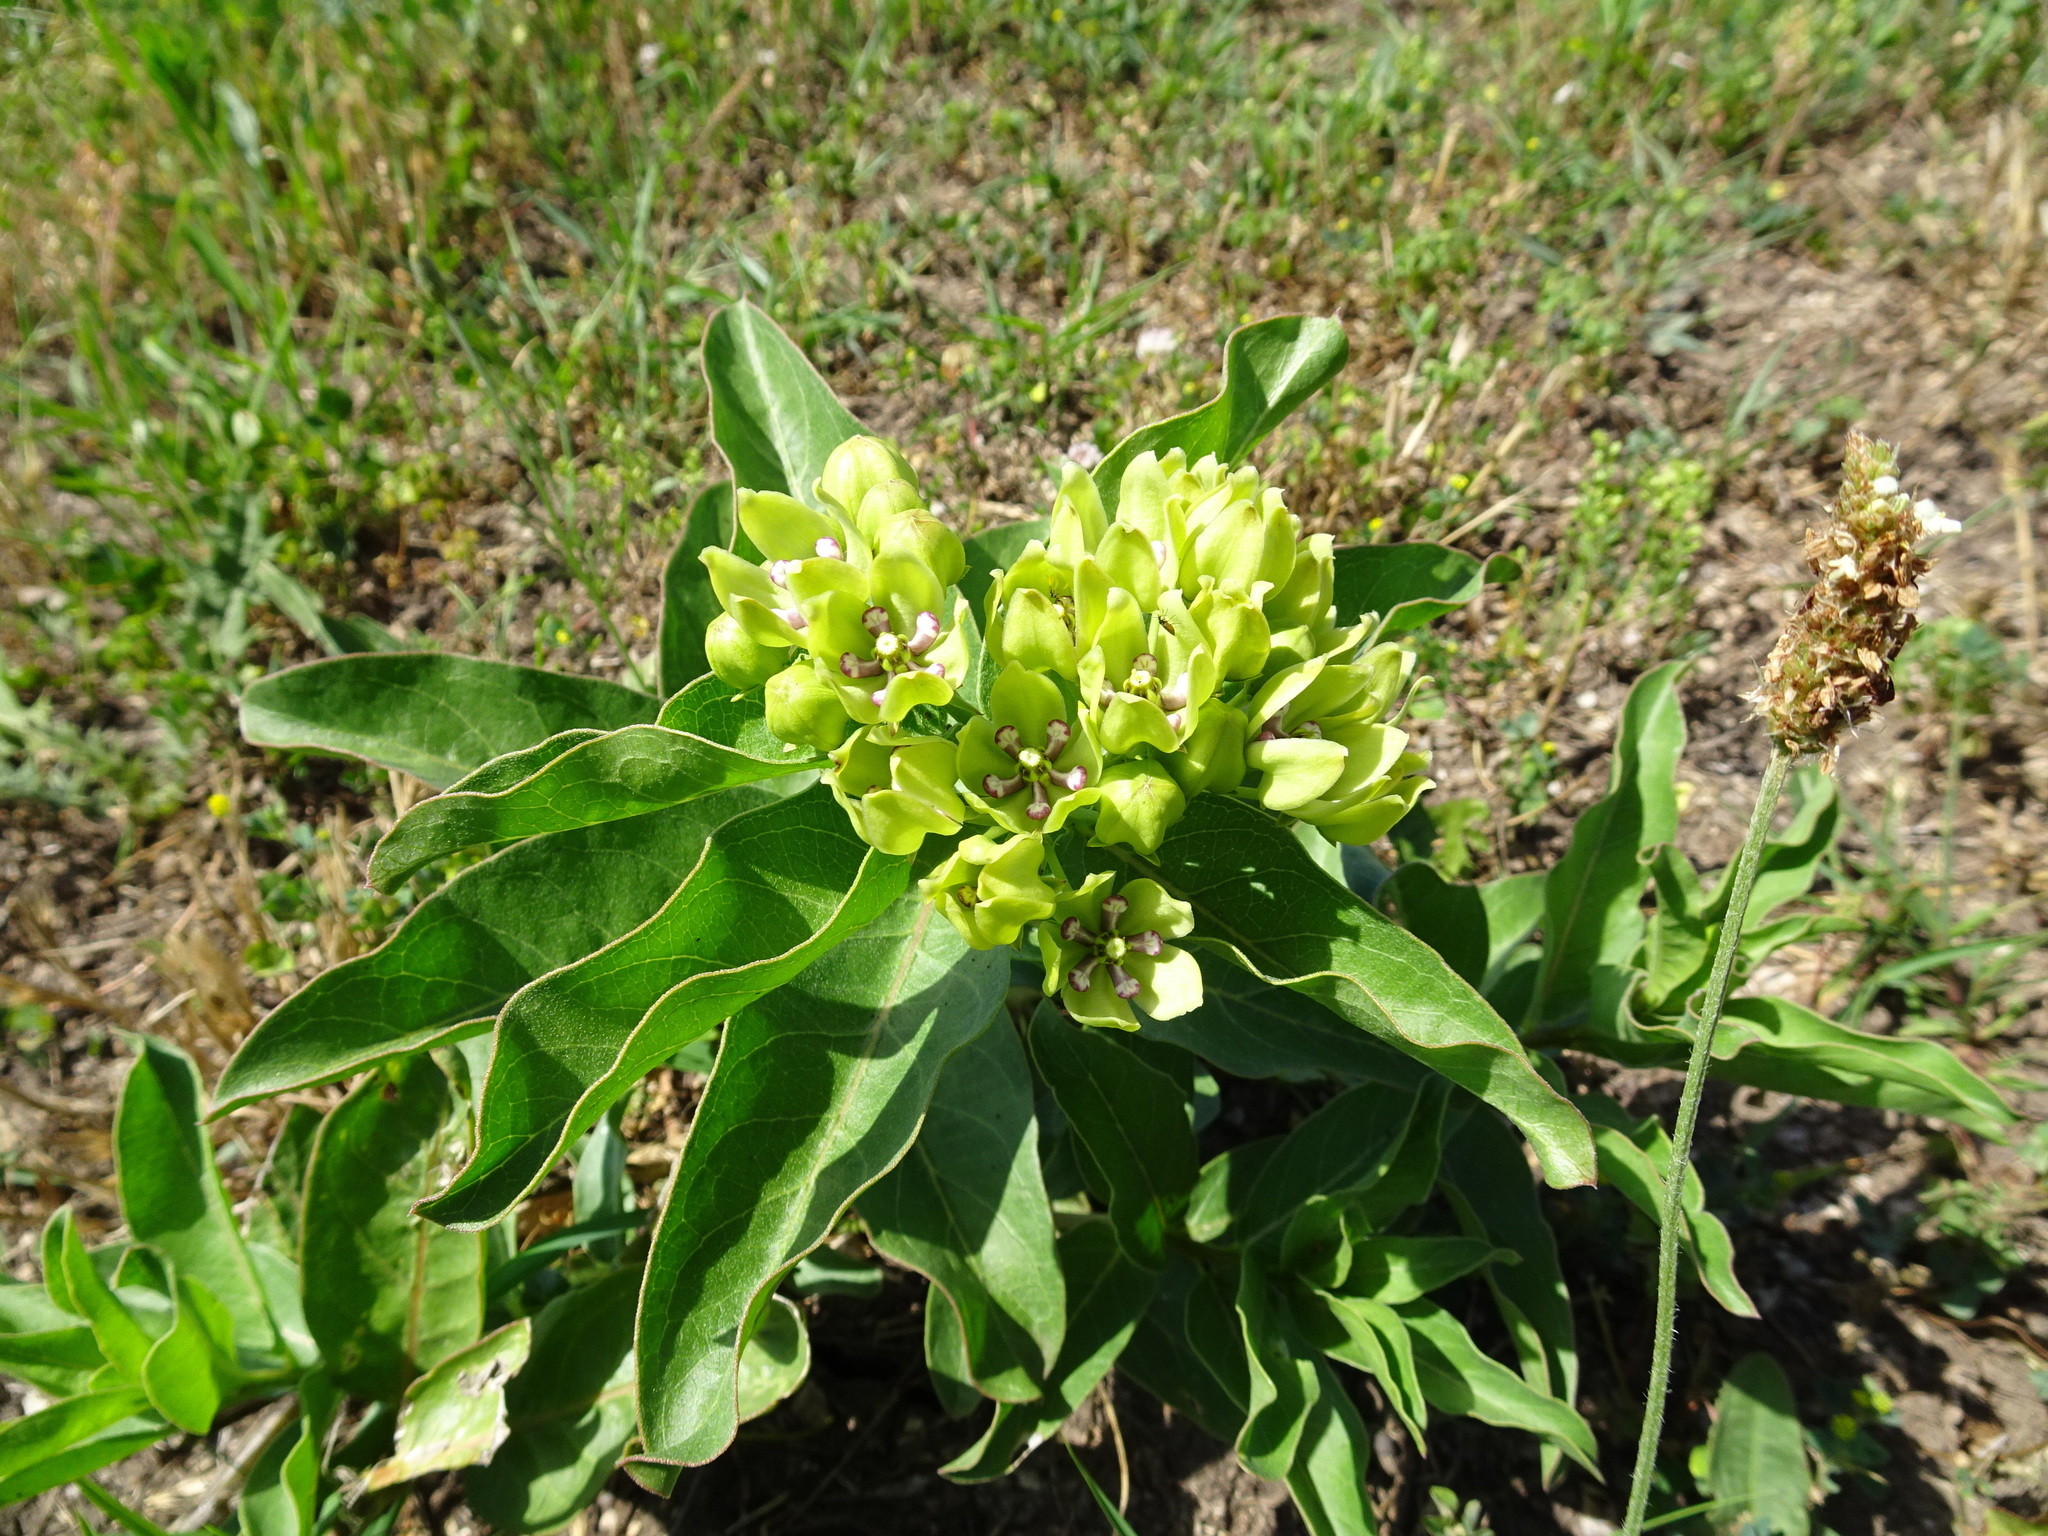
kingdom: Plantae
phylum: Tracheophyta
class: Magnoliopsida
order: Gentianales
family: Apocynaceae
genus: Asclepias
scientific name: Asclepias viridis
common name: Antelope-horns
